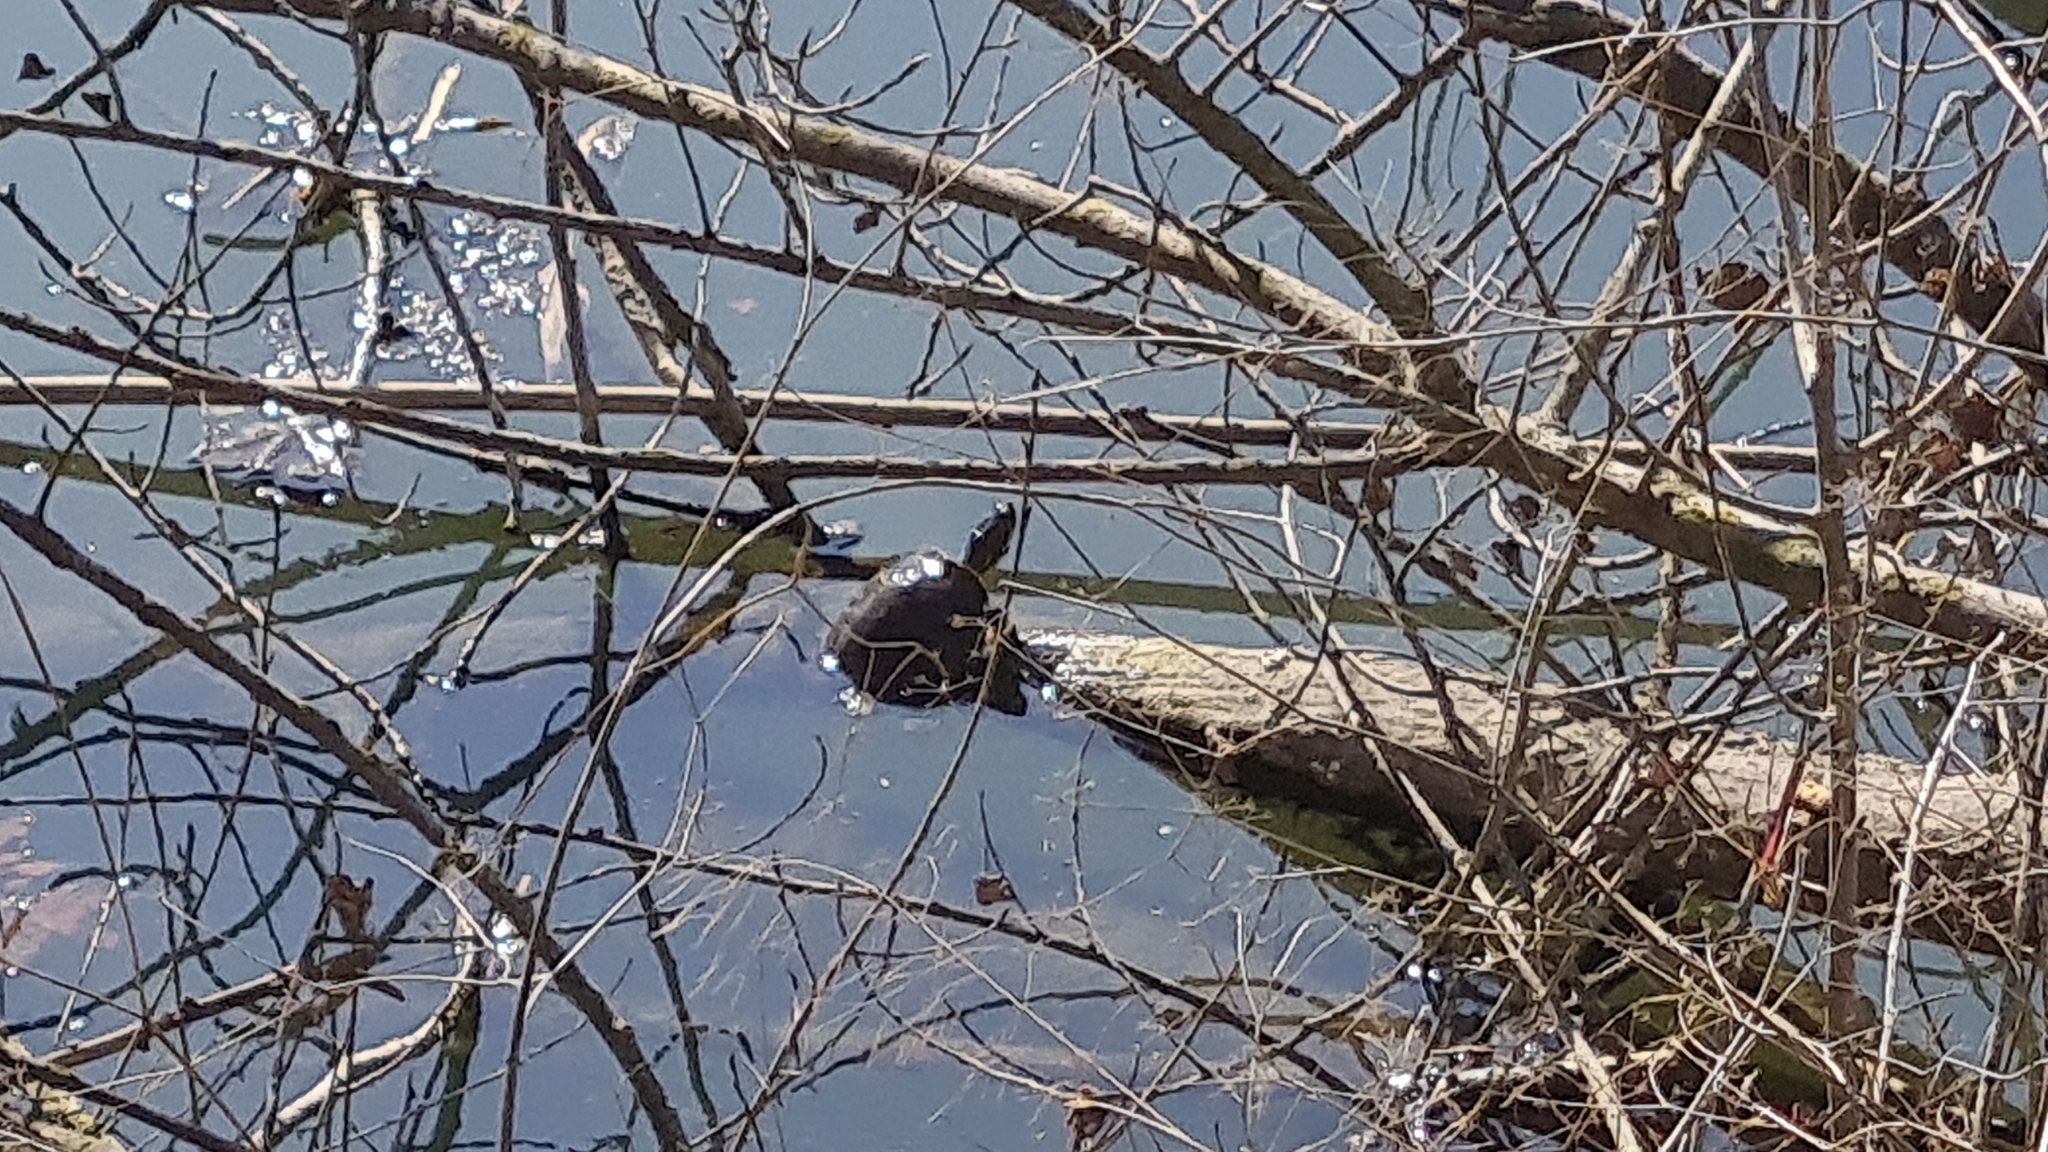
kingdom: Animalia
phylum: Chordata
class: Testudines
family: Emydidae
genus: Trachemys
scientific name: Trachemys scripta
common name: Slider
